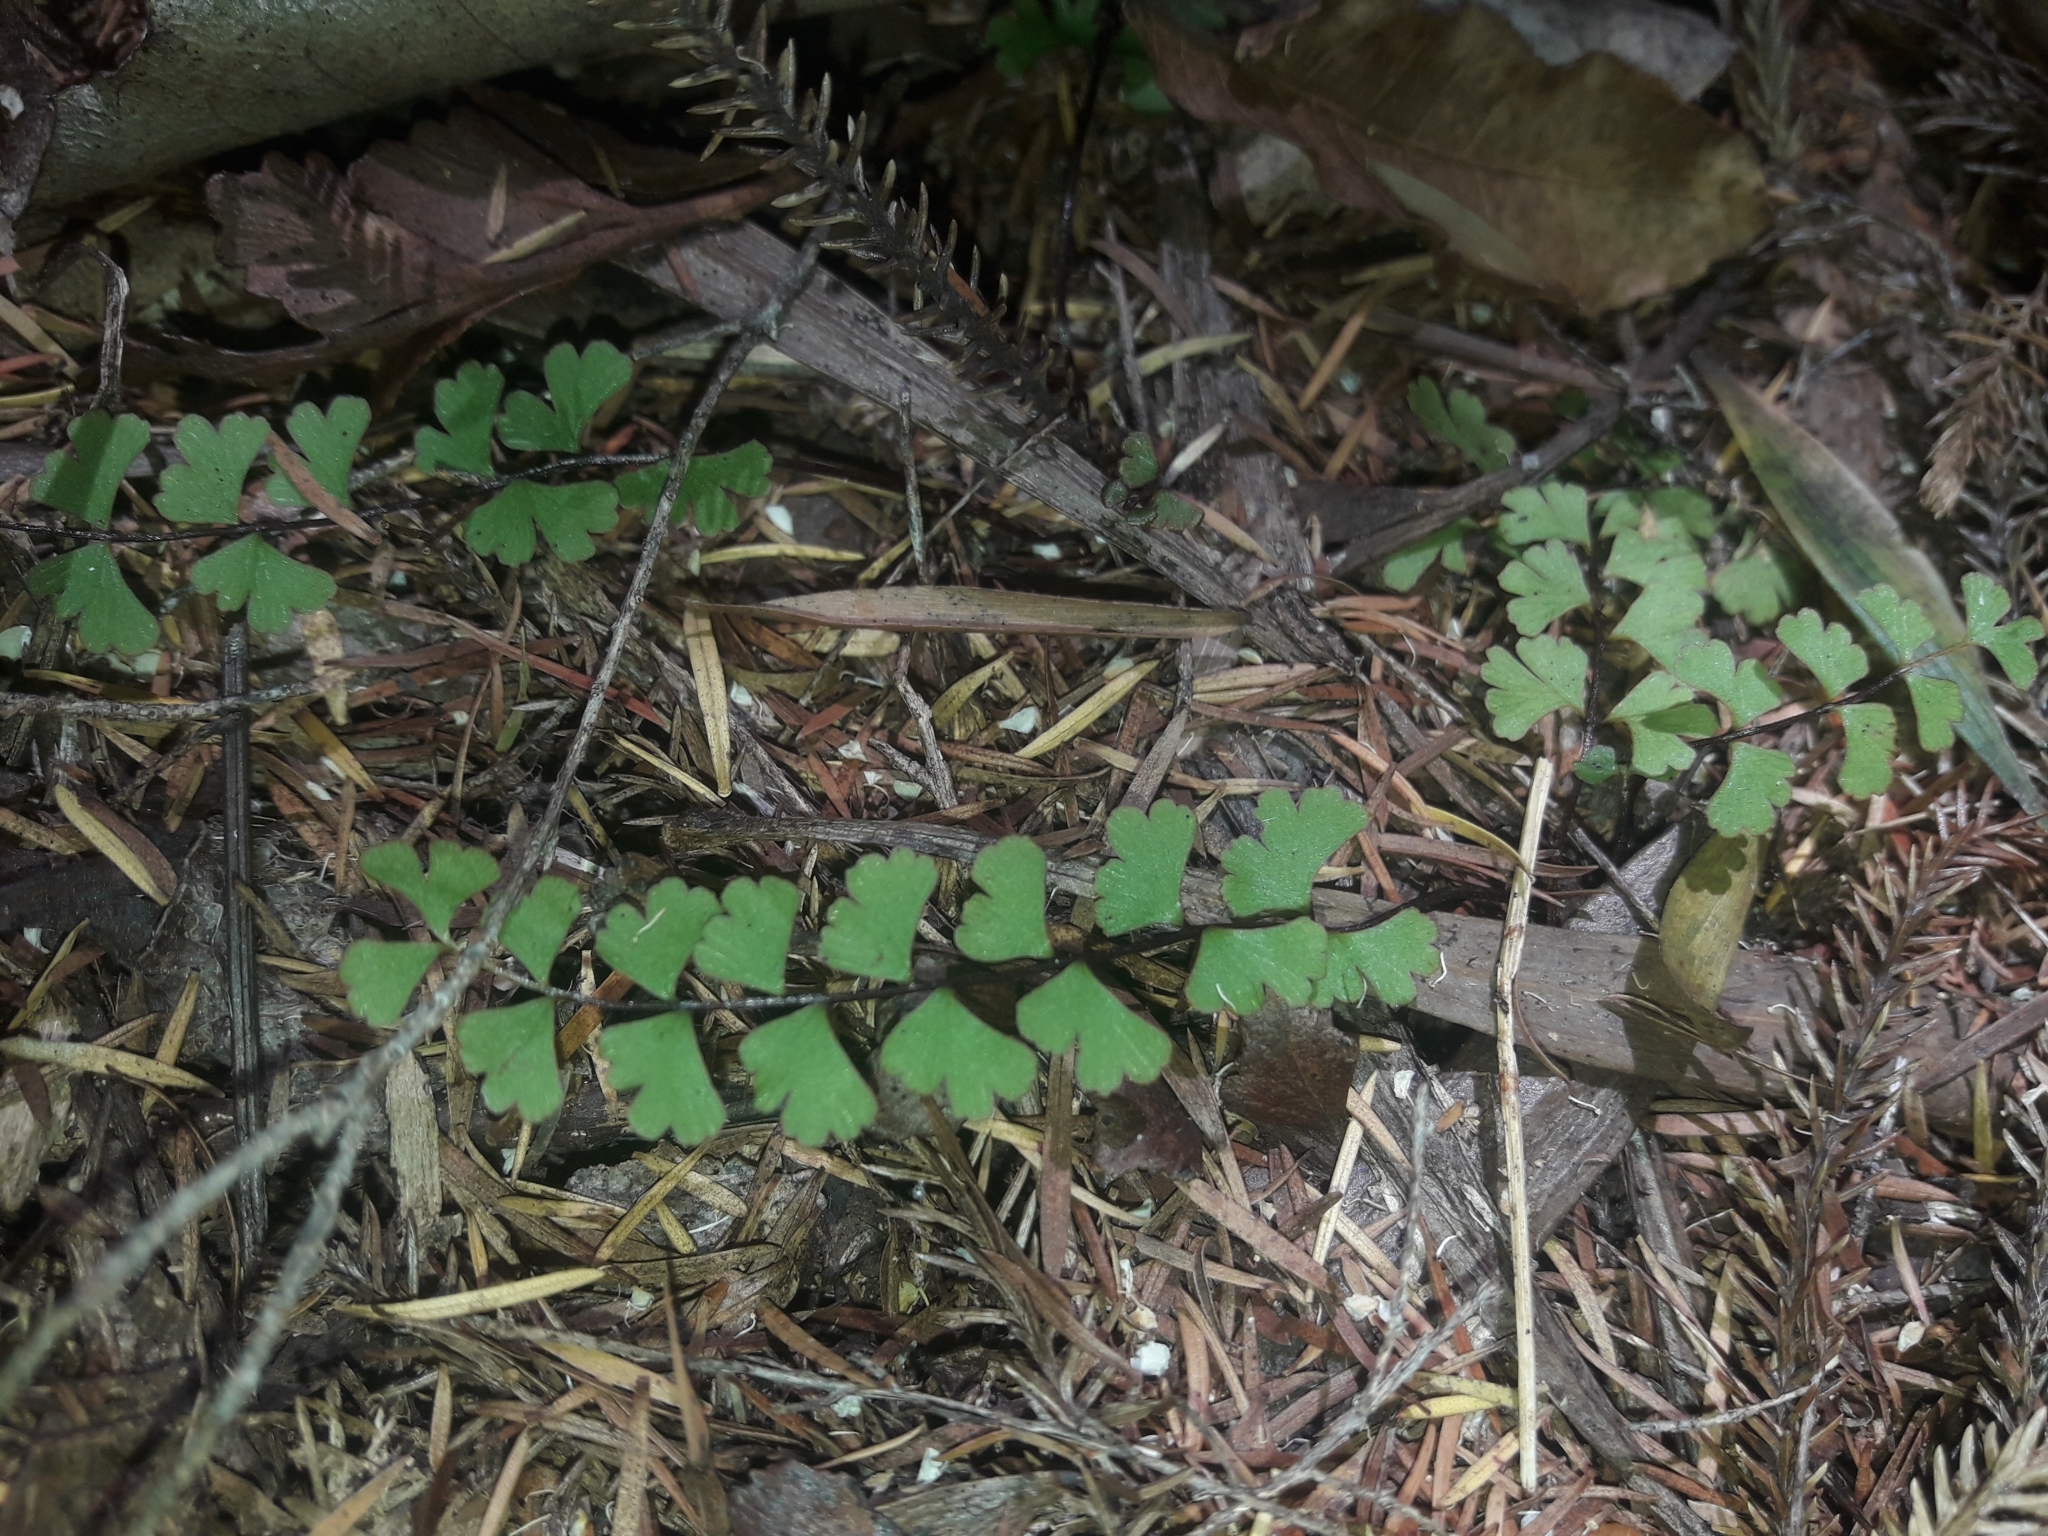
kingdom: Plantae
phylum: Tracheophyta
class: Polypodiopsida
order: Polypodiales
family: Lindsaeaceae
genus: Lindsaea
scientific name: Lindsaea linearis
